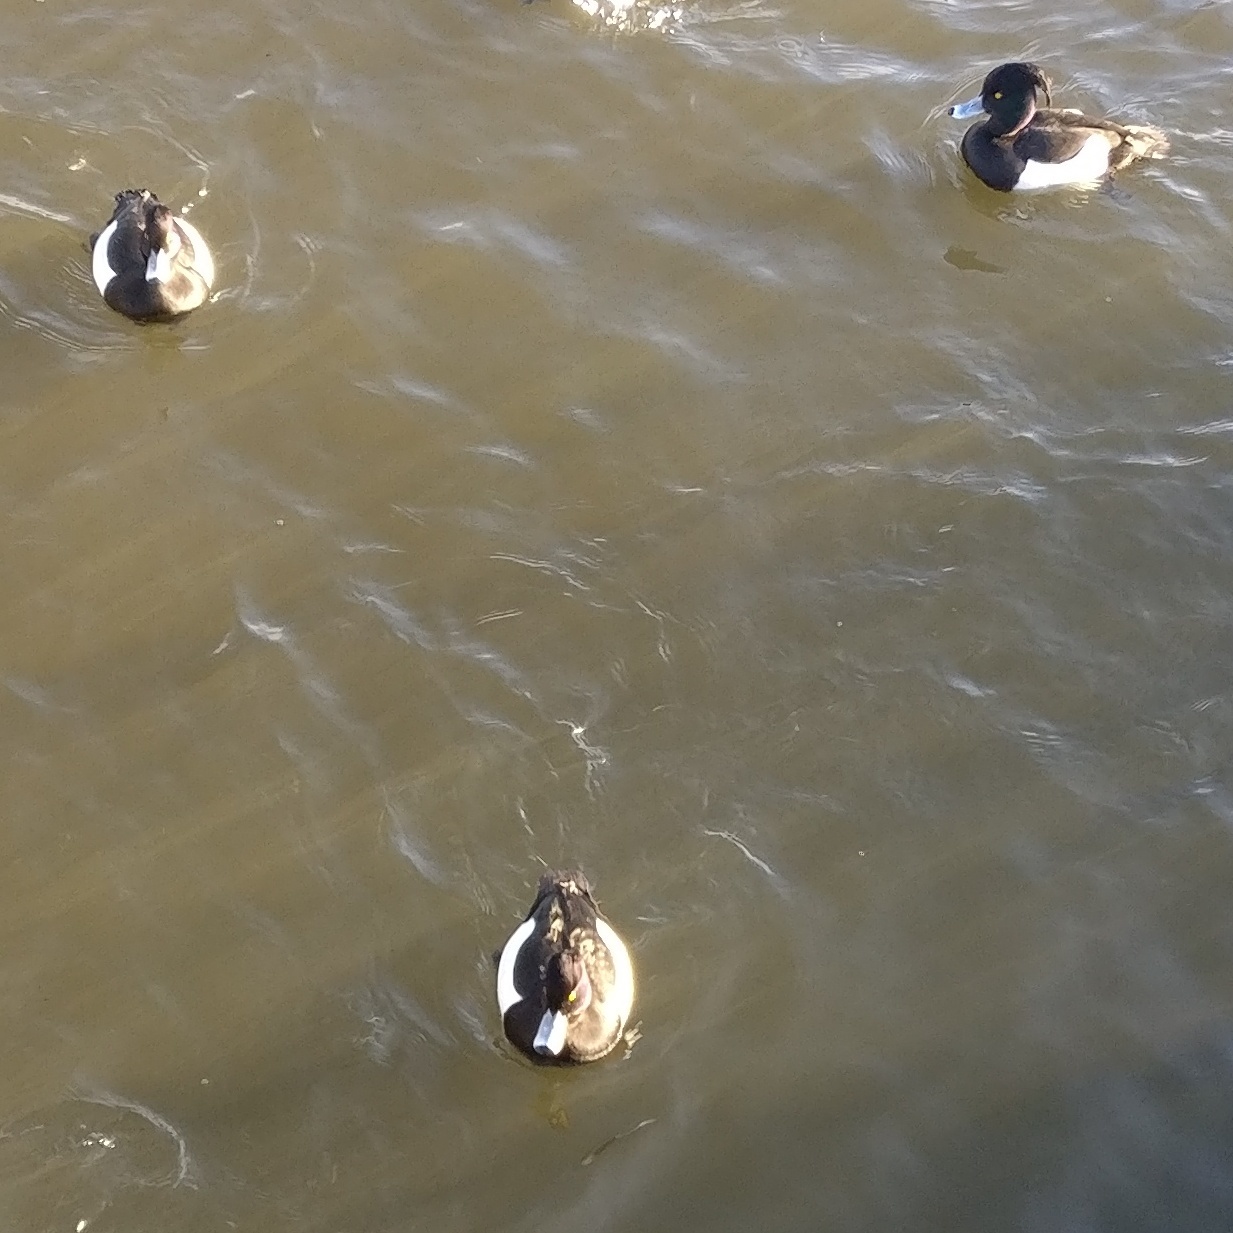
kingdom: Animalia
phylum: Chordata
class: Aves
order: Anseriformes
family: Anatidae
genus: Aythya
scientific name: Aythya fuligula
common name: Tufted duck
